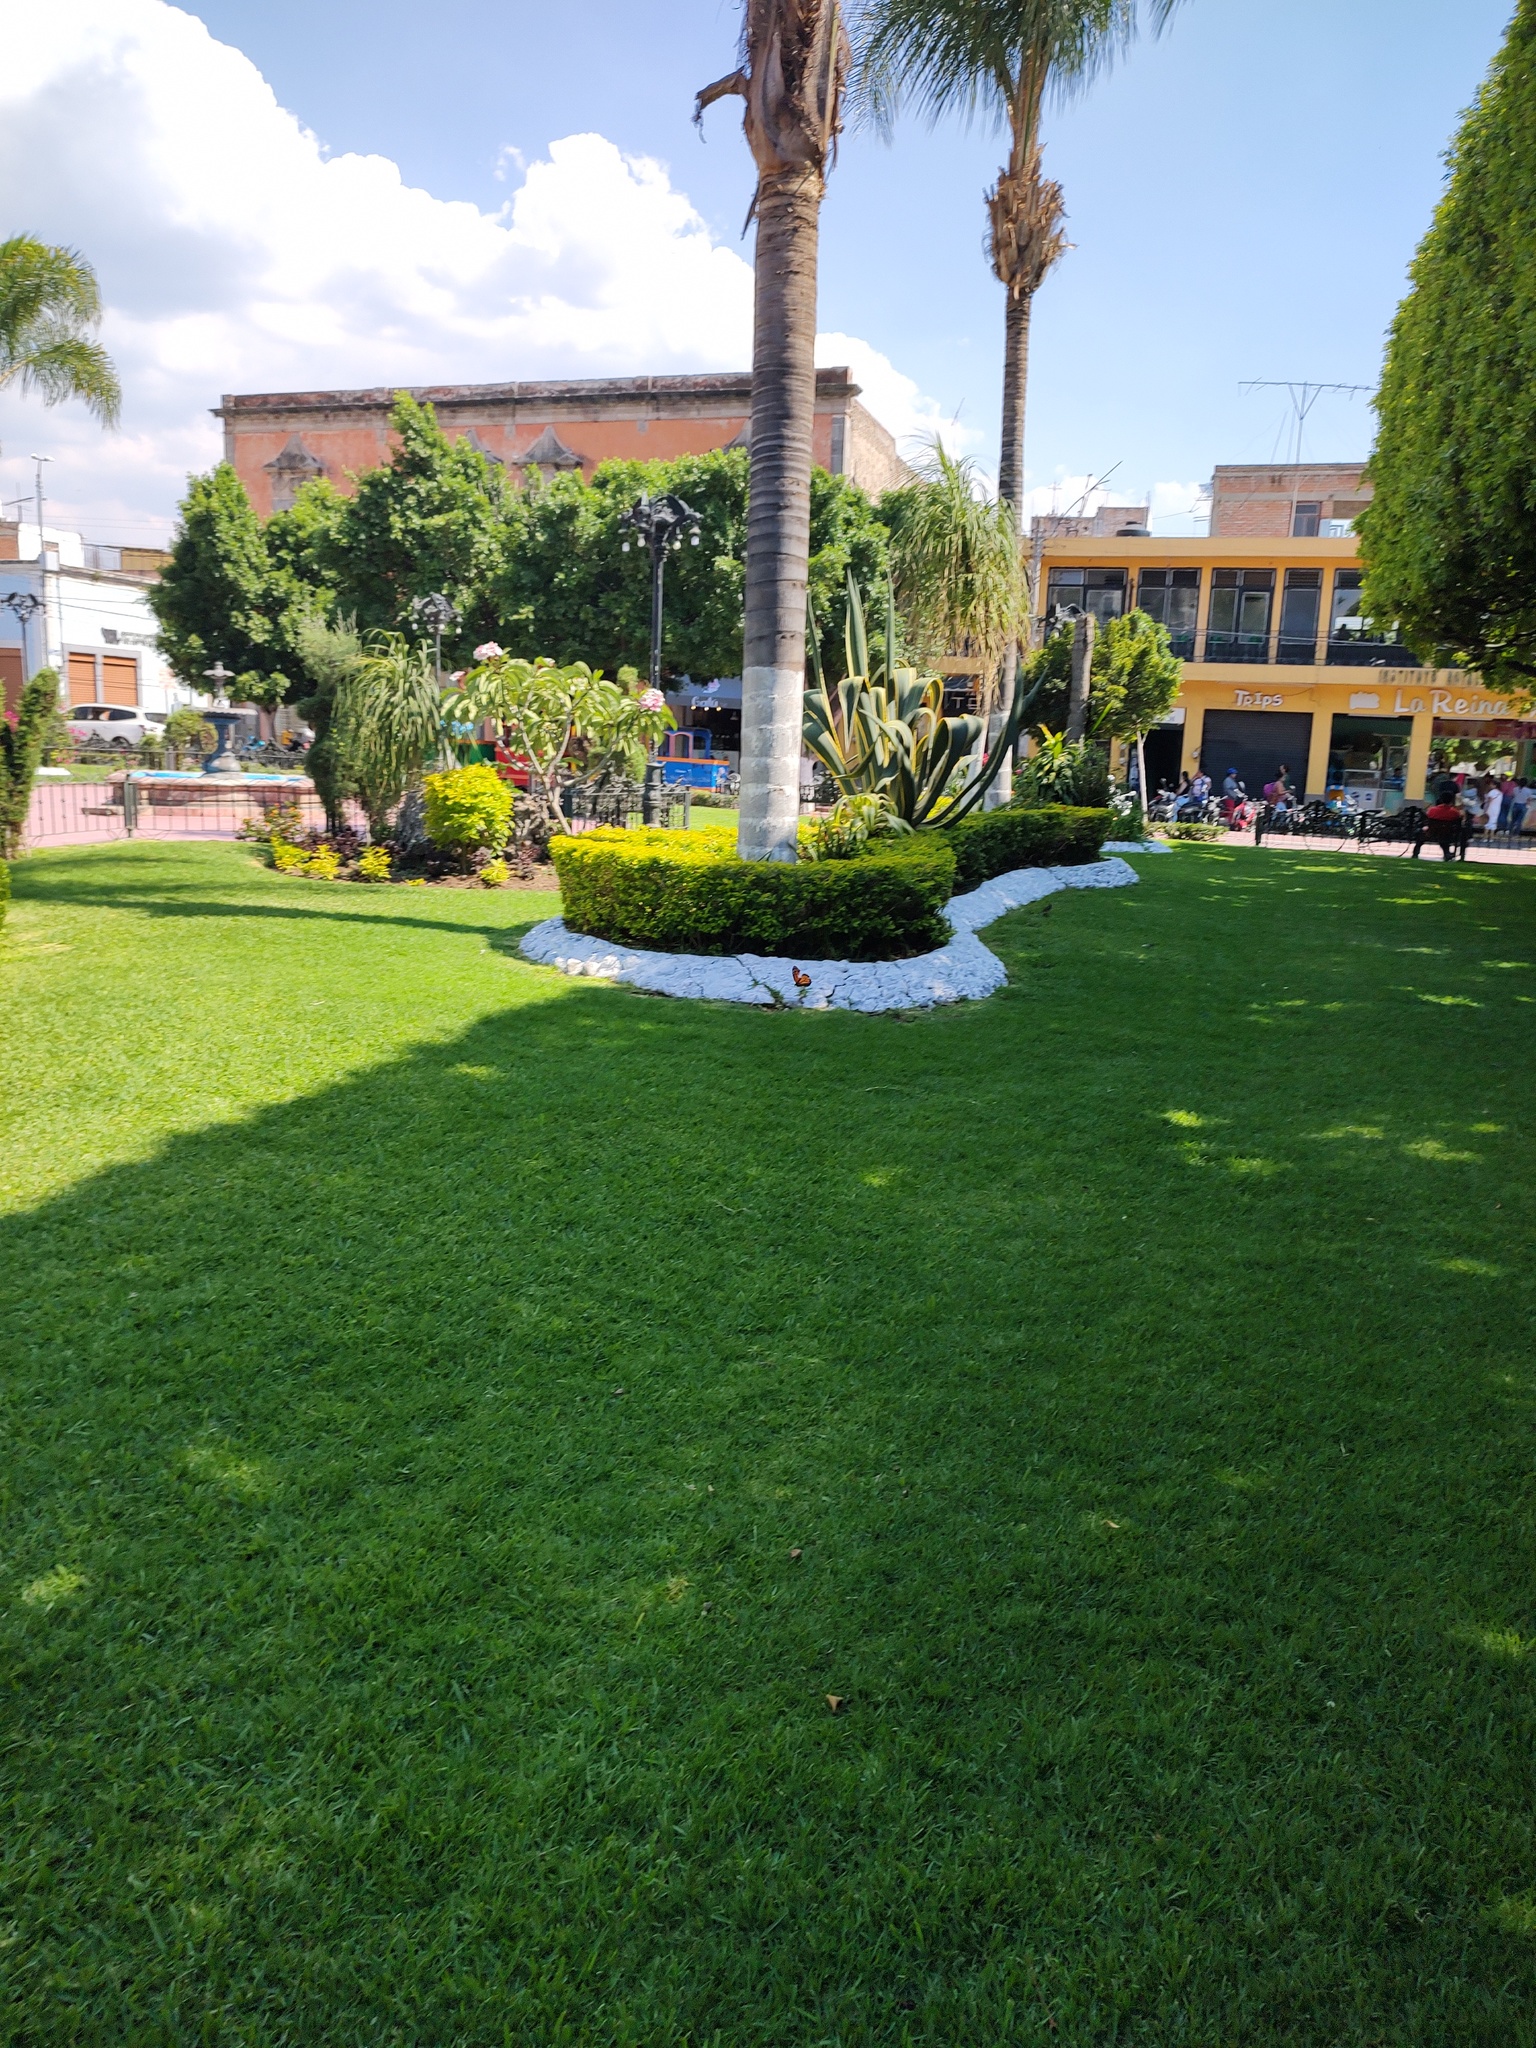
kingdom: Animalia
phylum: Arthropoda
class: Insecta
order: Lepidoptera
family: Nymphalidae
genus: Danaus
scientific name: Danaus plexippus
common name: Monarch
